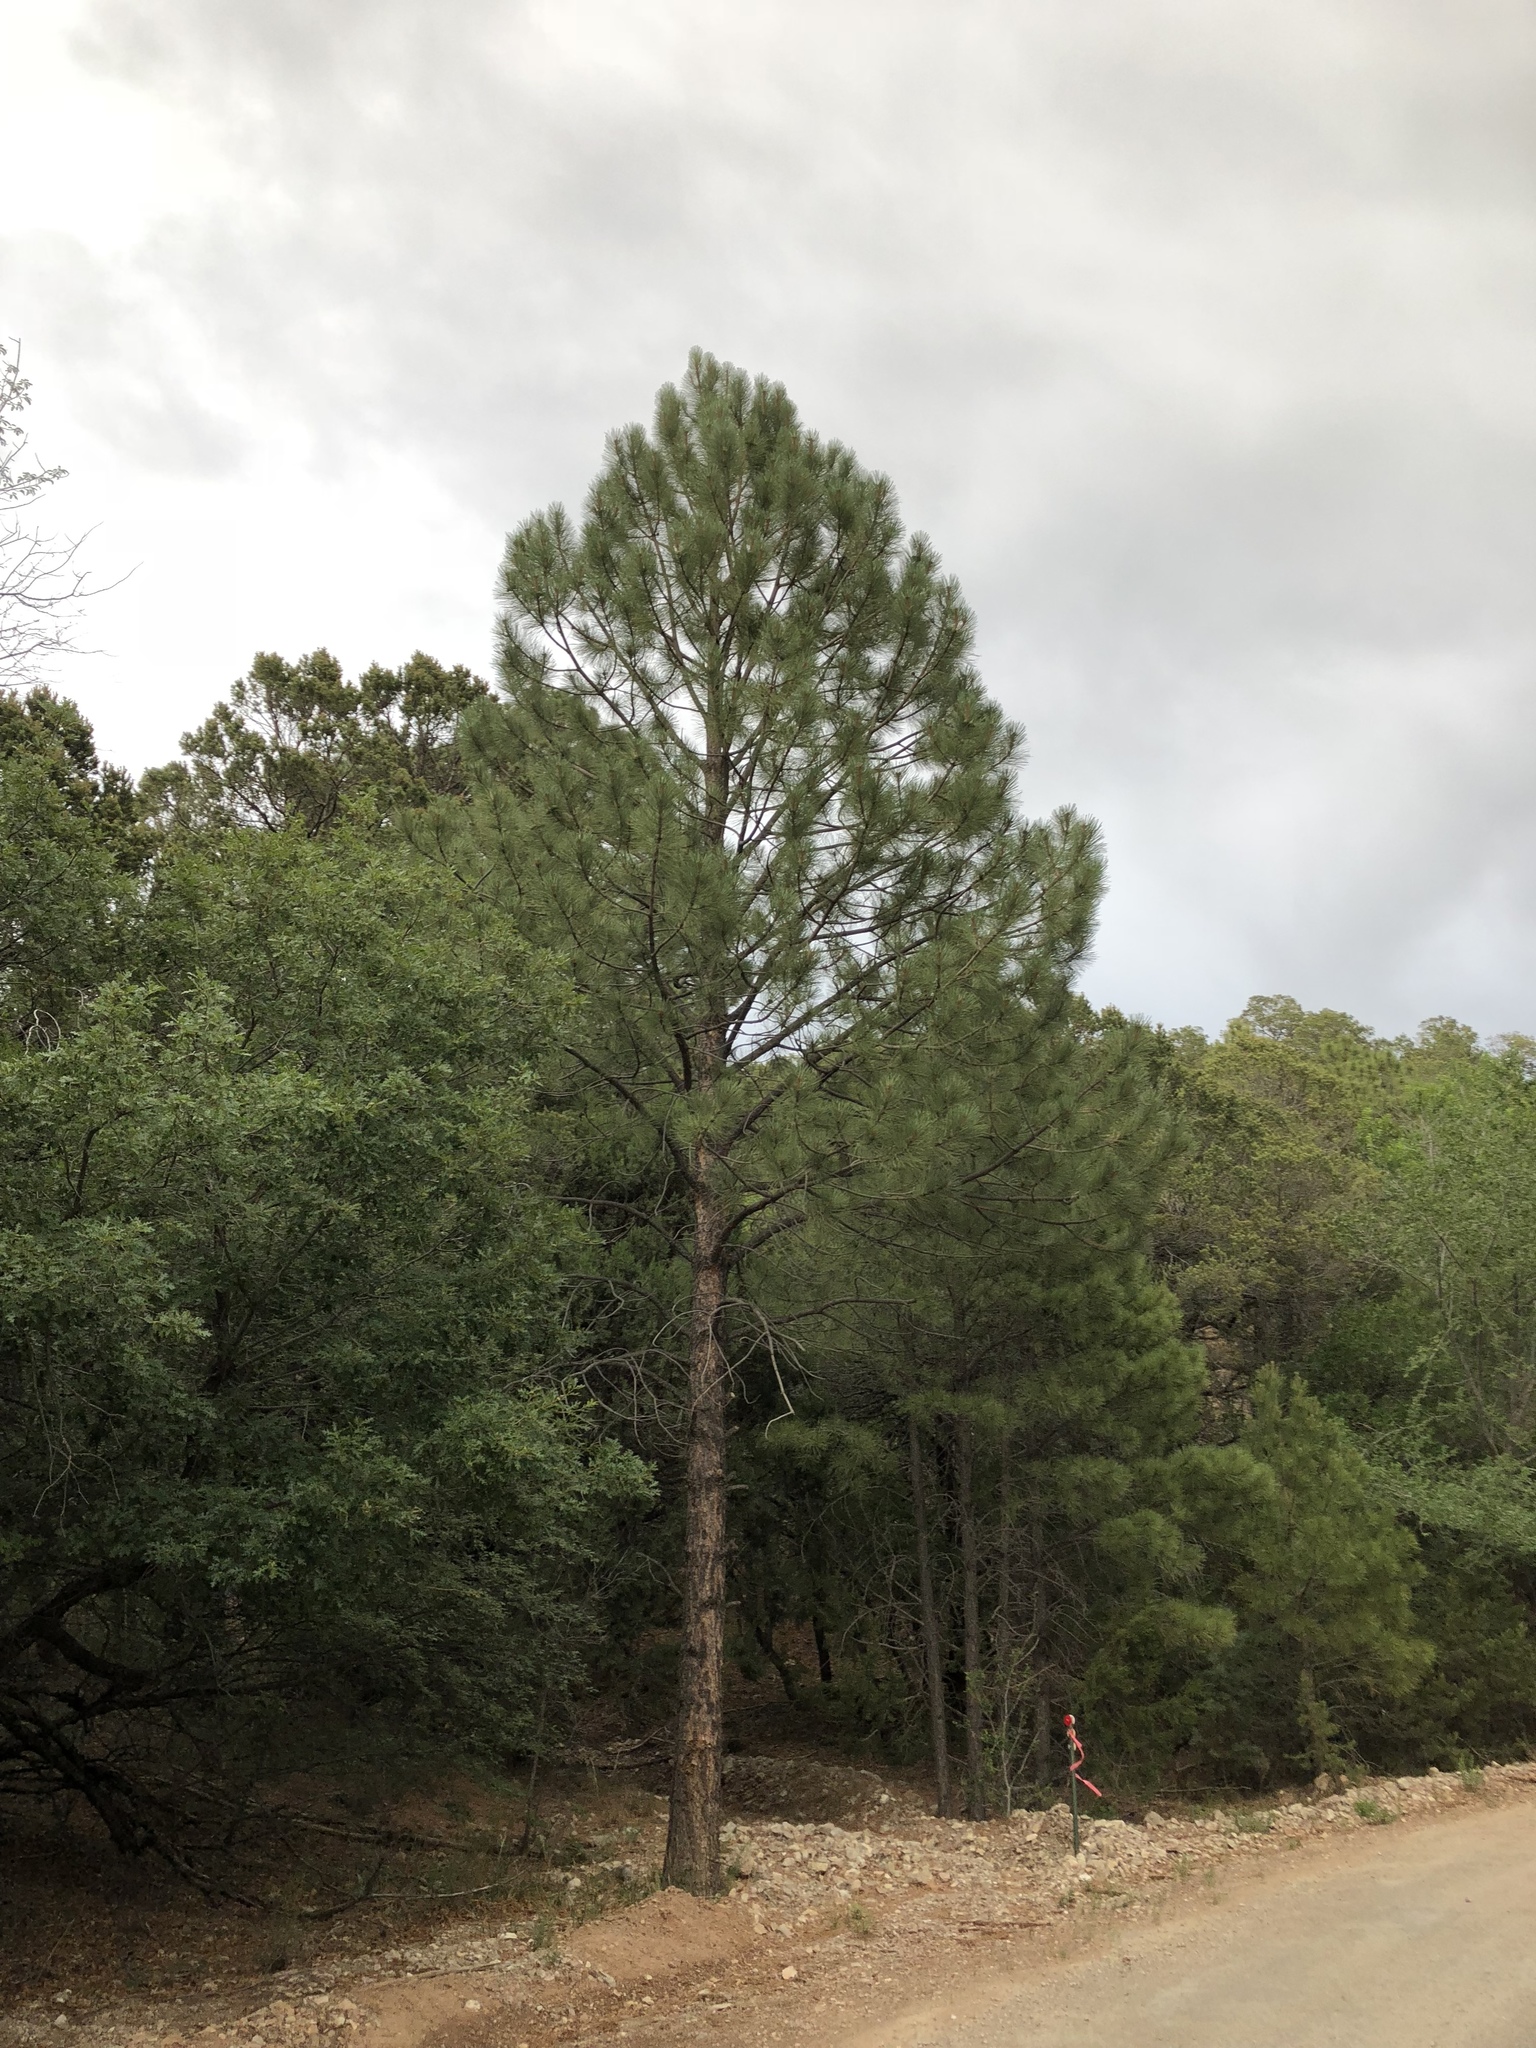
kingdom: Plantae
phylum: Tracheophyta
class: Pinopsida
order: Pinales
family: Pinaceae
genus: Pinus
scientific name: Pinus ponderosa
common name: Western yellow-pine
